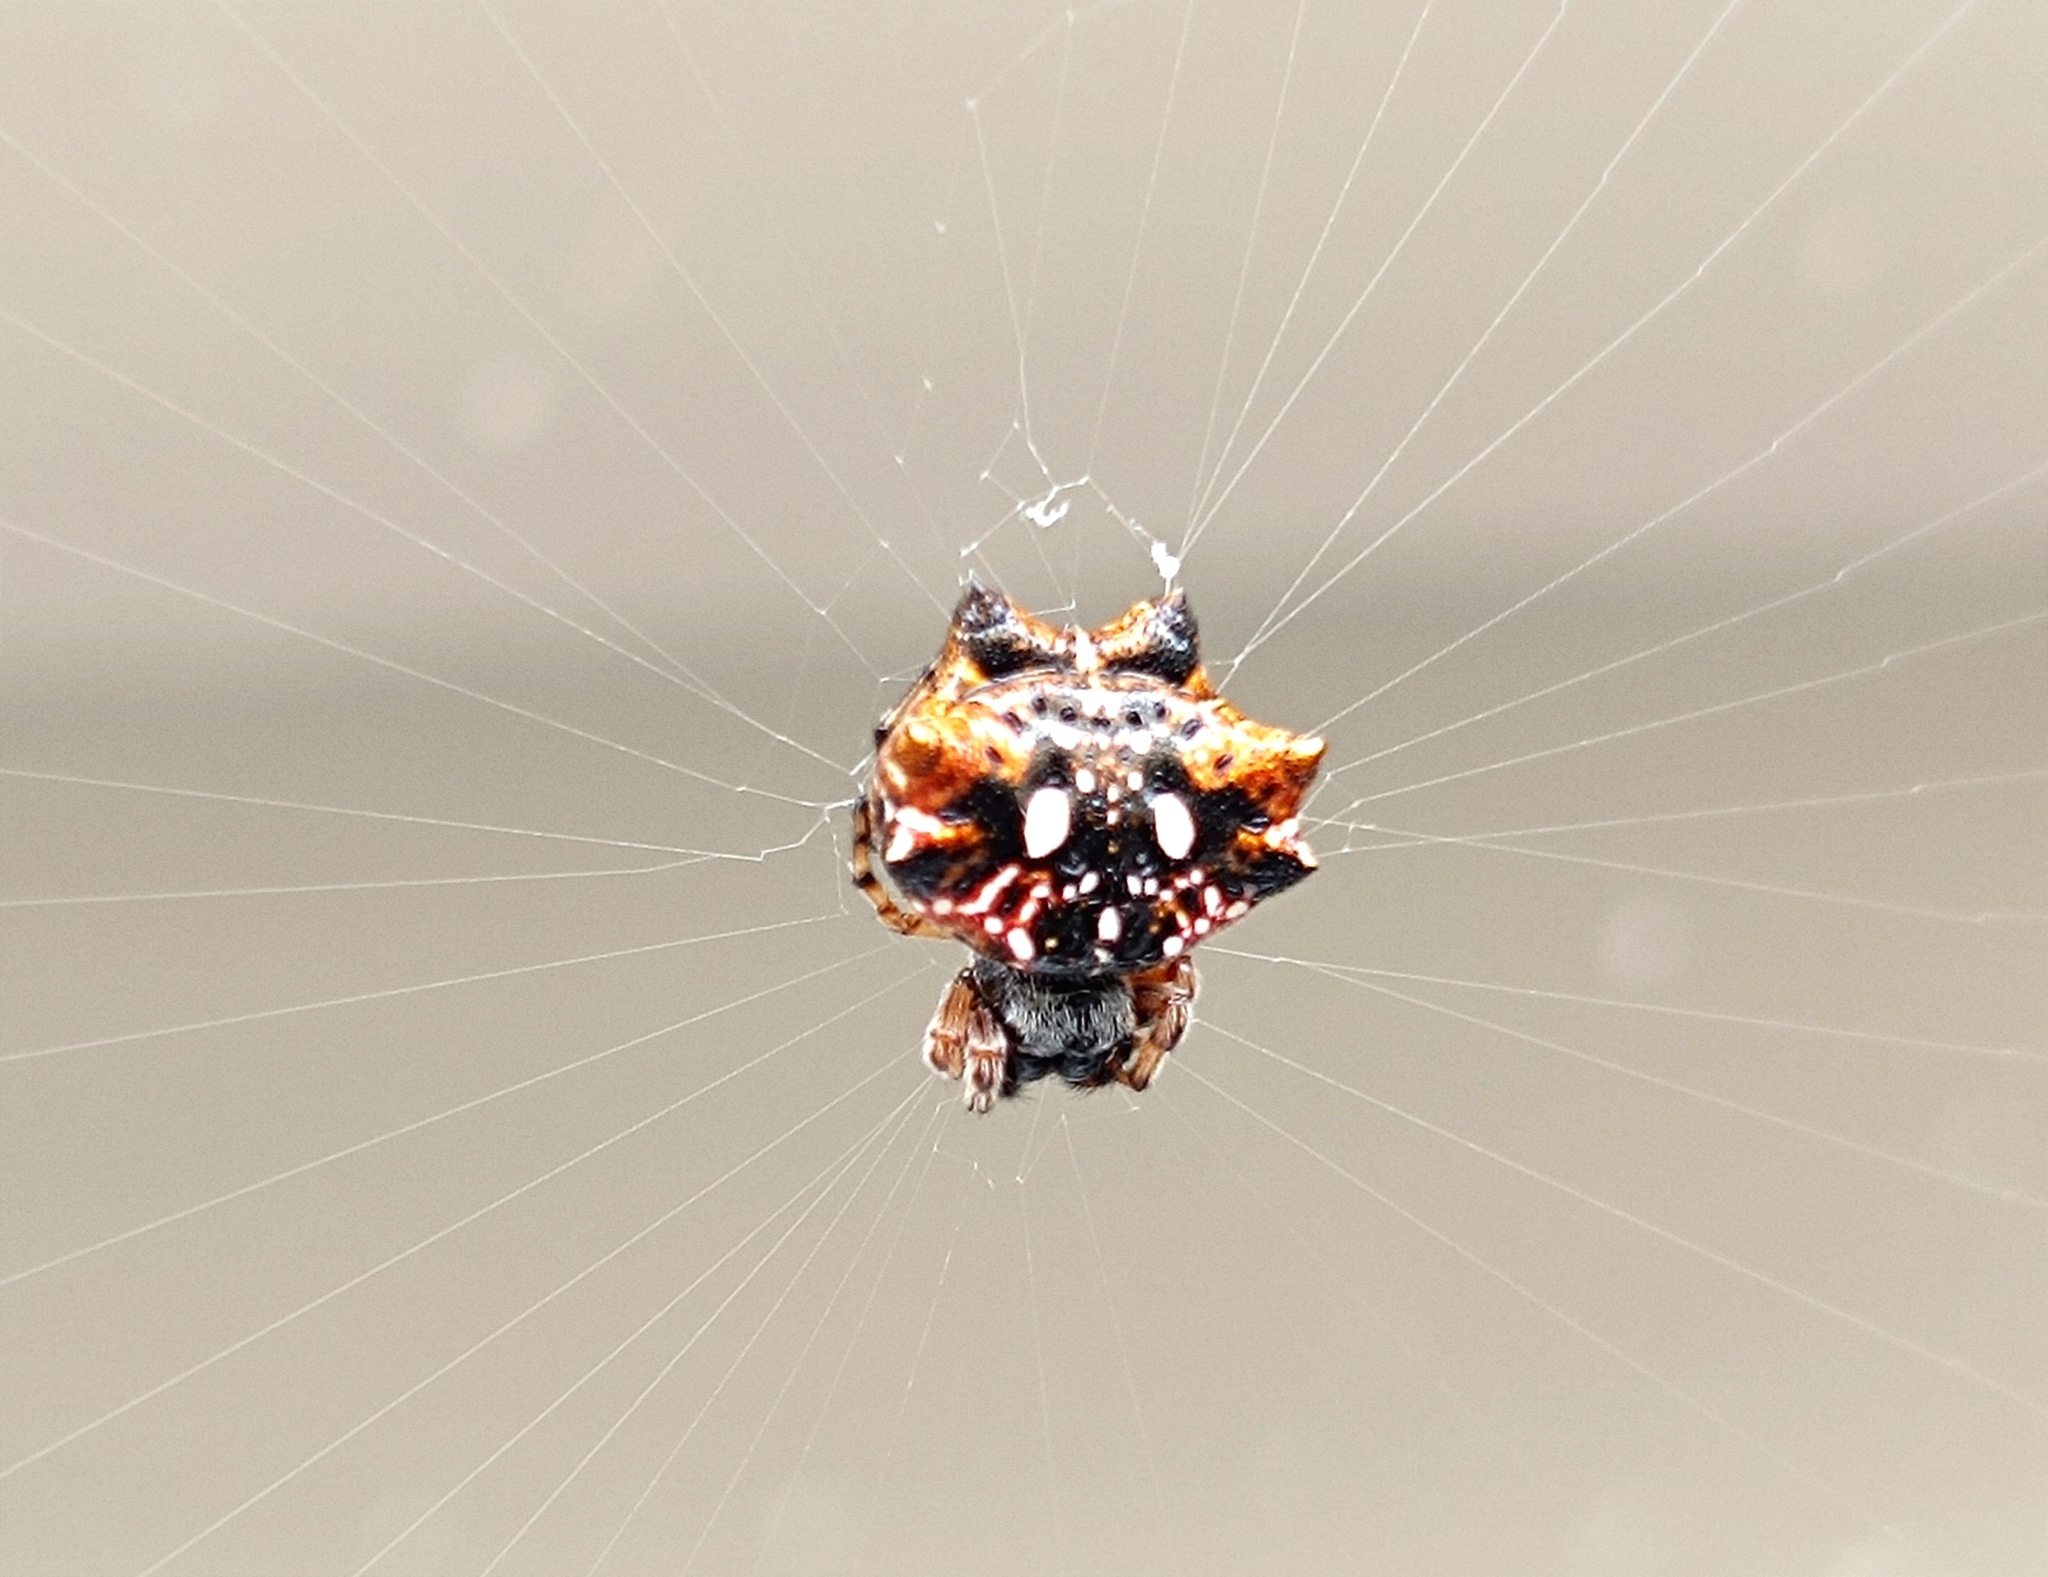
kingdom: Animalia
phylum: Arthropoda
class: Arachnida
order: Araneae
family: Araneidae
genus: Thelacantha
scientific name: Thelacantha brevispina
